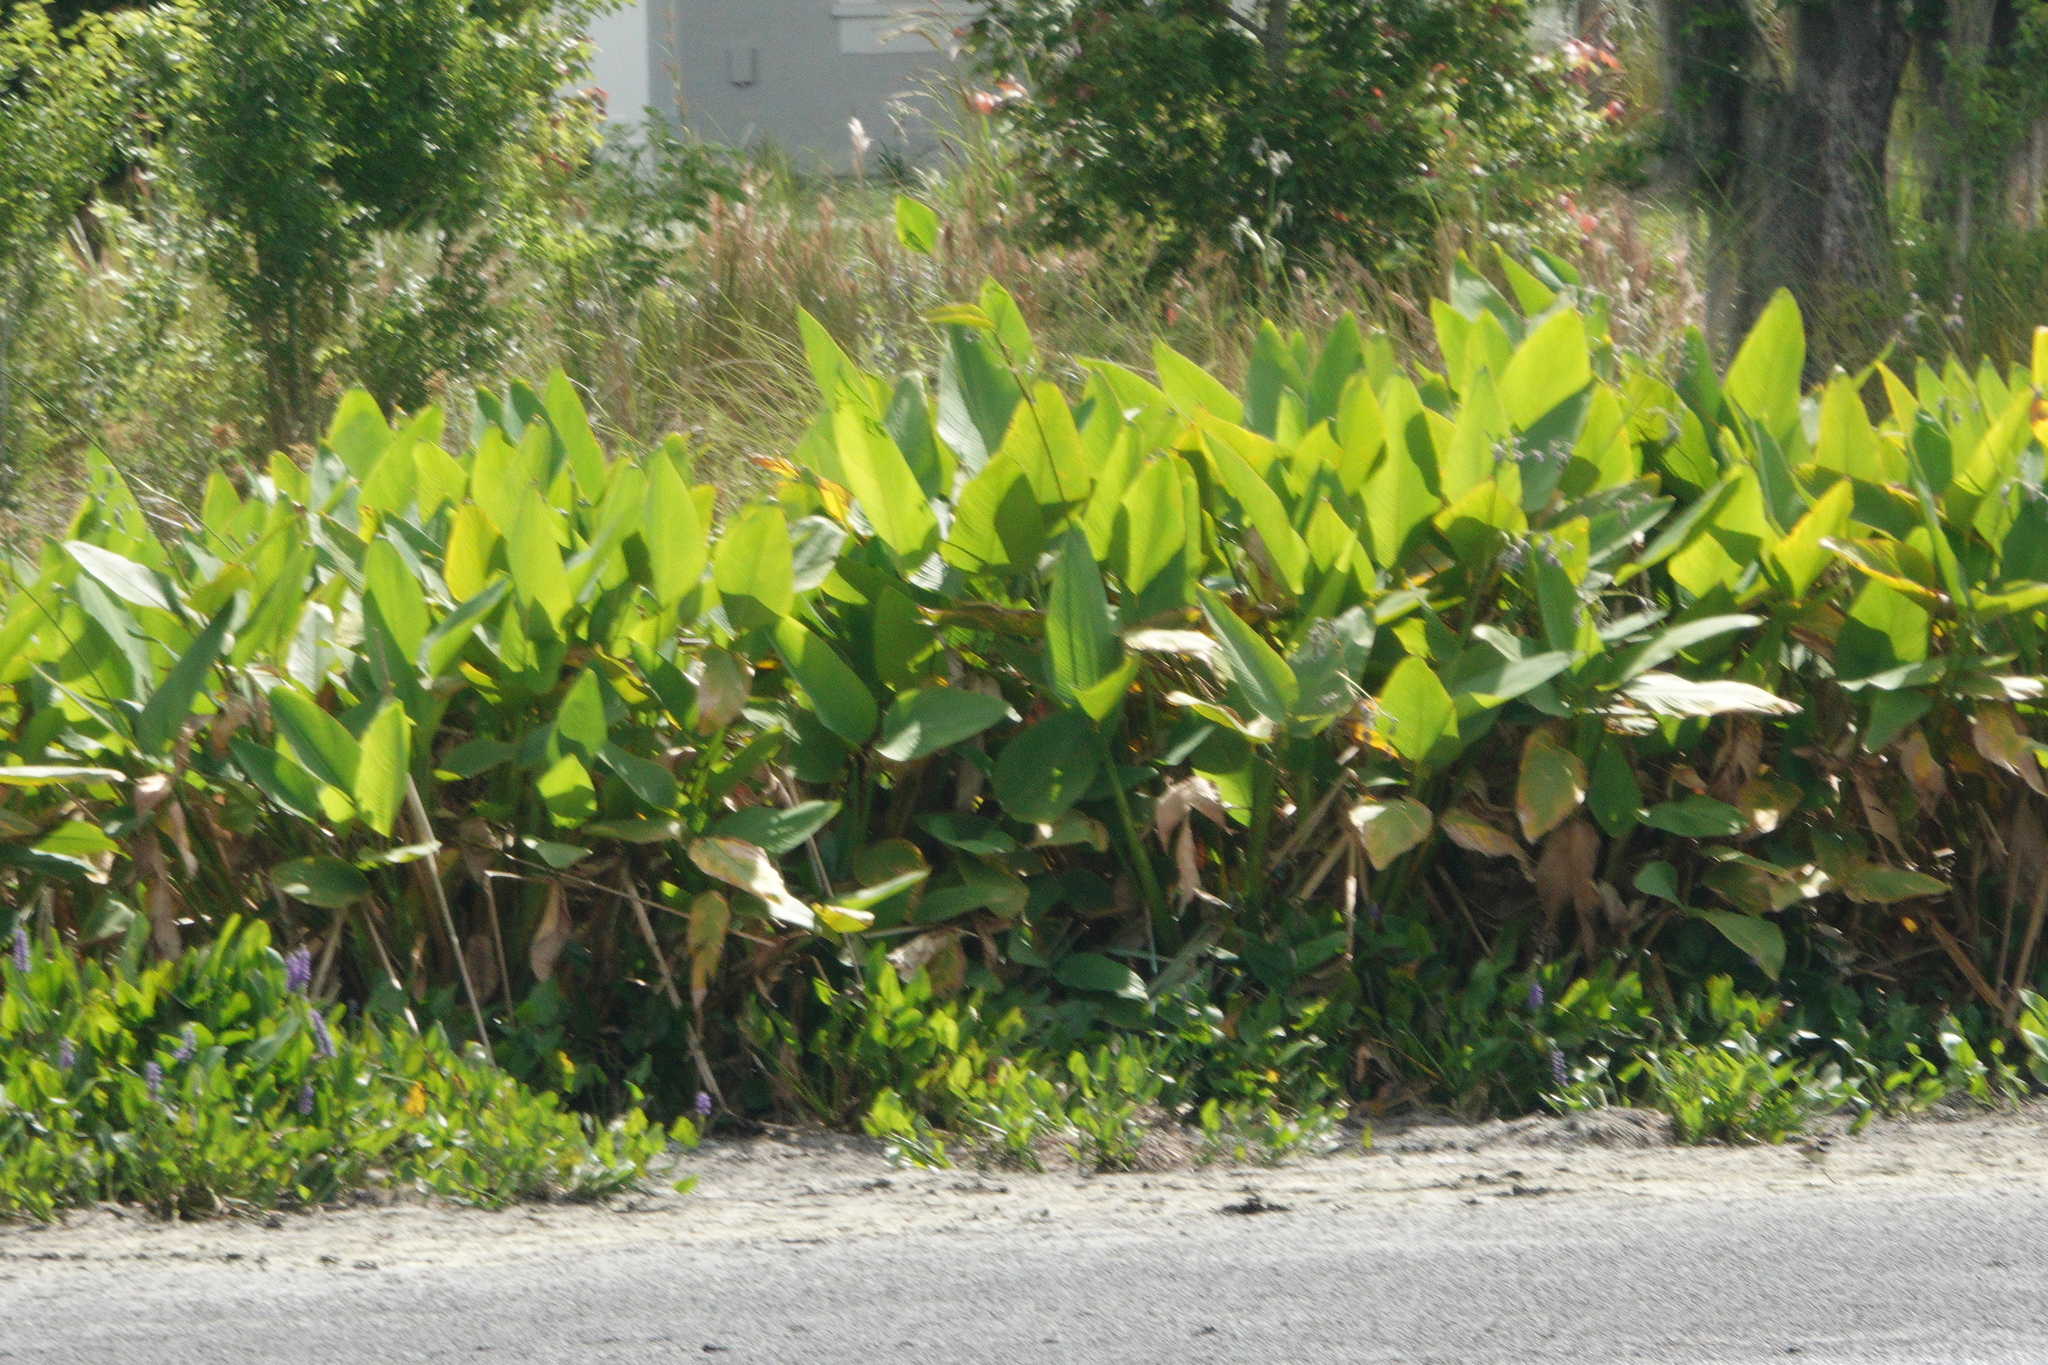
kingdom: Plantae
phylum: Tracheophyta
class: Liliopsida
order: Zingiberales
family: Marantaceae
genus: Thalia
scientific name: Thalia geniculata
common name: Arrowroot
